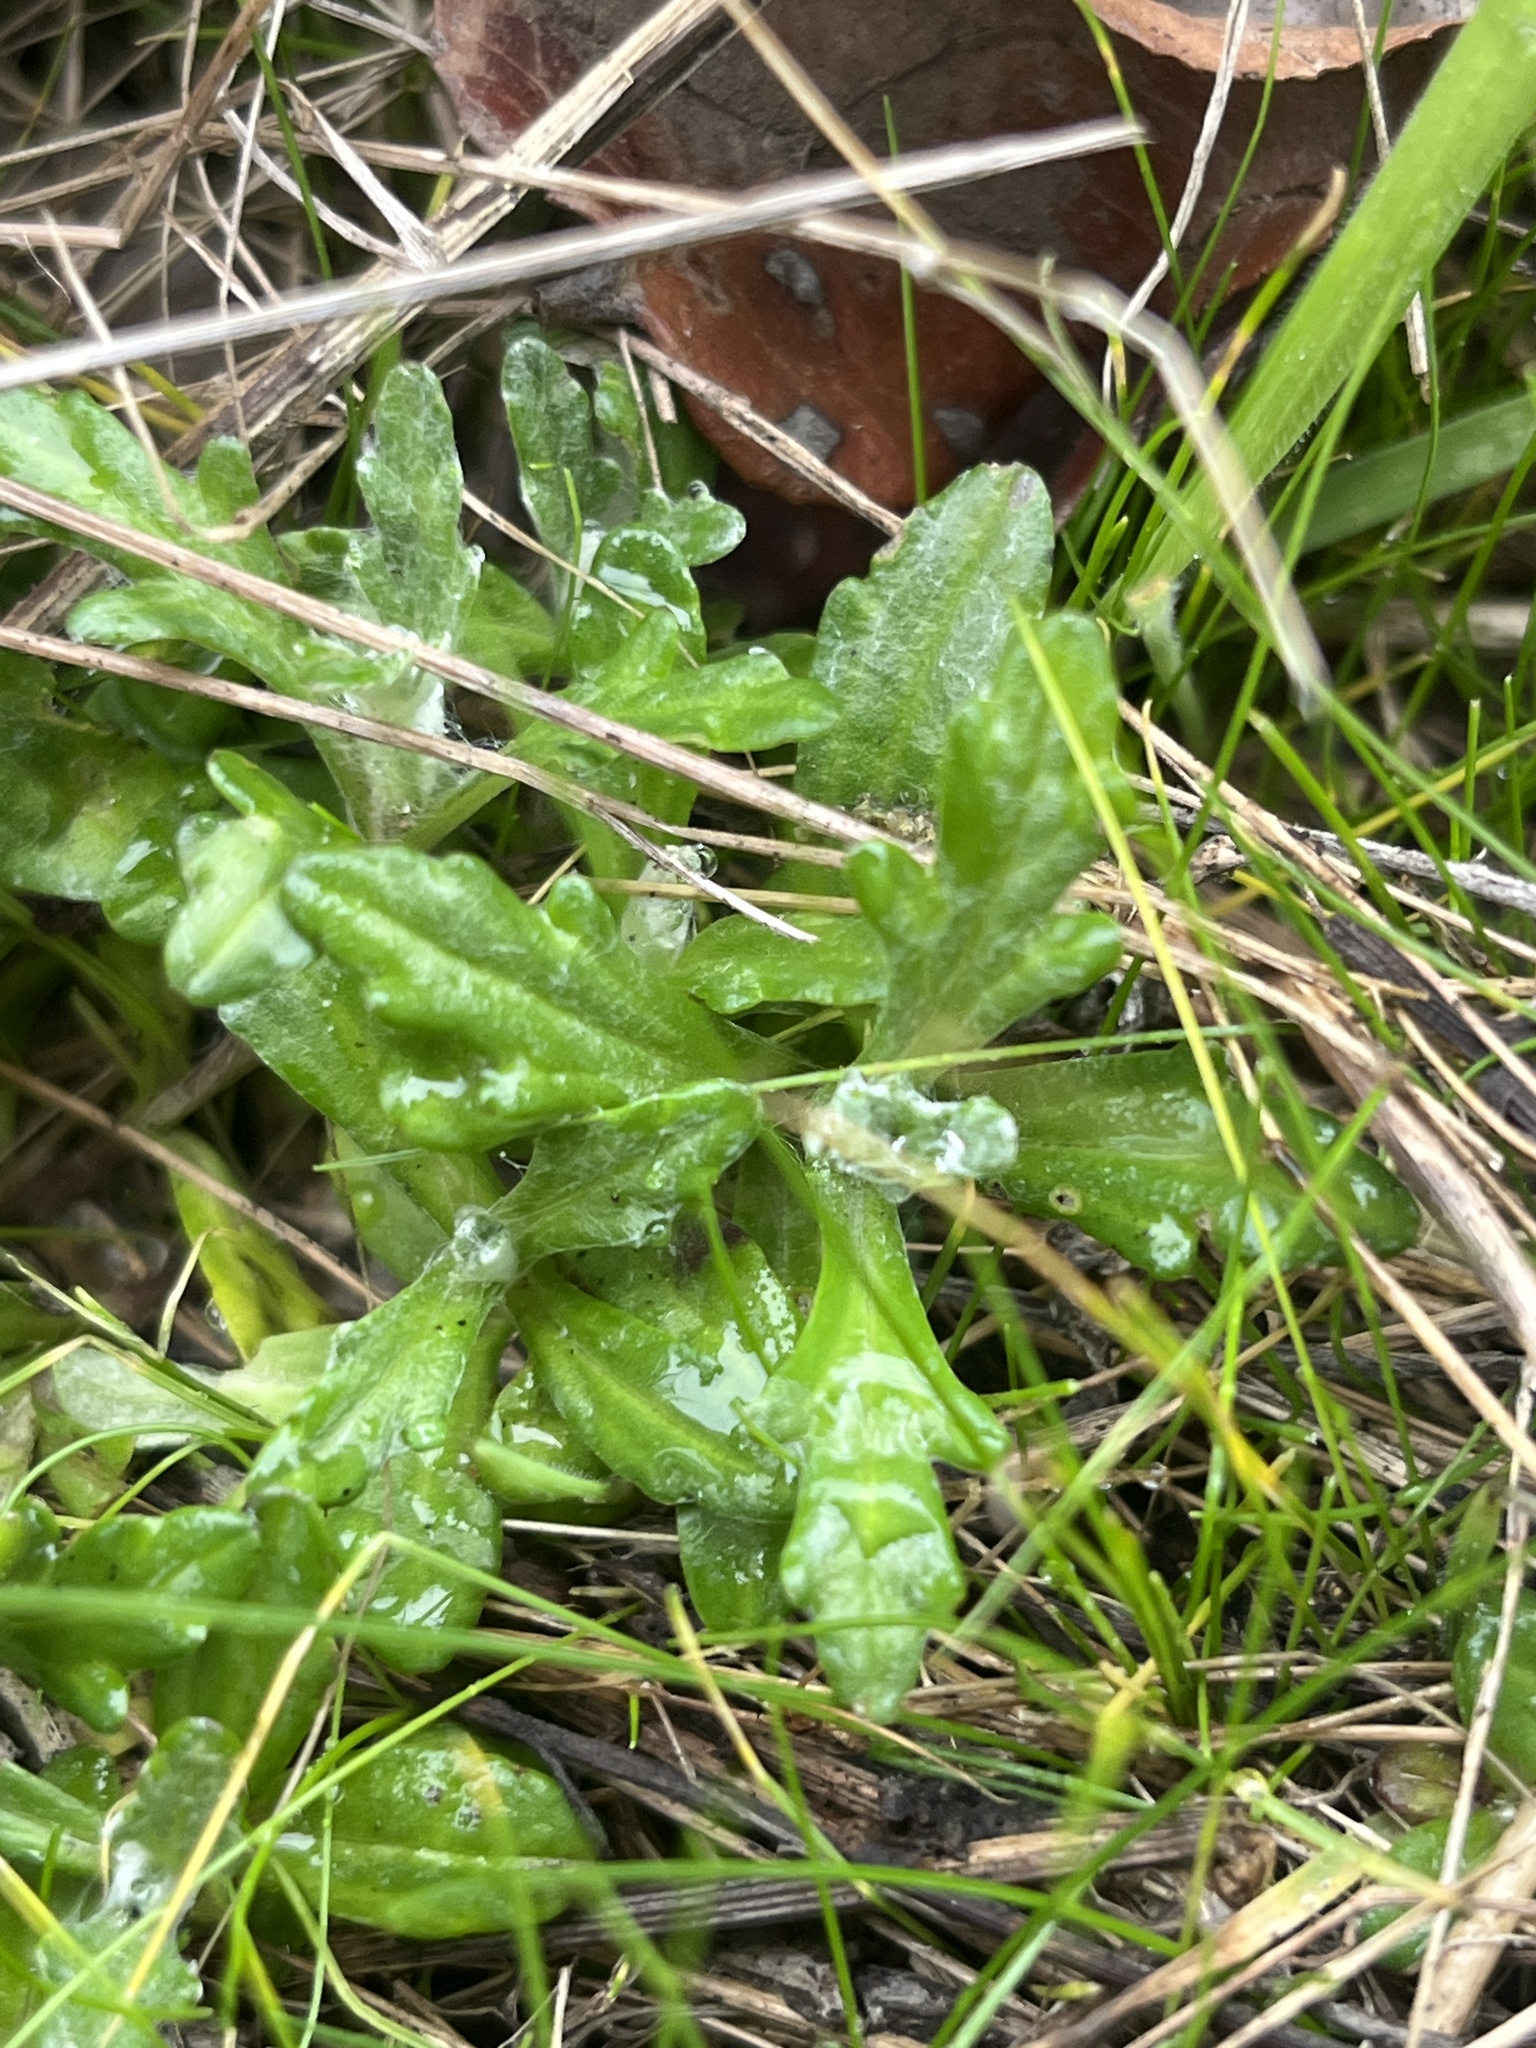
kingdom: Plantae
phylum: Tracheophyta
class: Magnoliopsida
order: Asterales
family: Asteraceae
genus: Eriophyllum
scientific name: Eriophyllum lanatum
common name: Common woolly-sunflower
